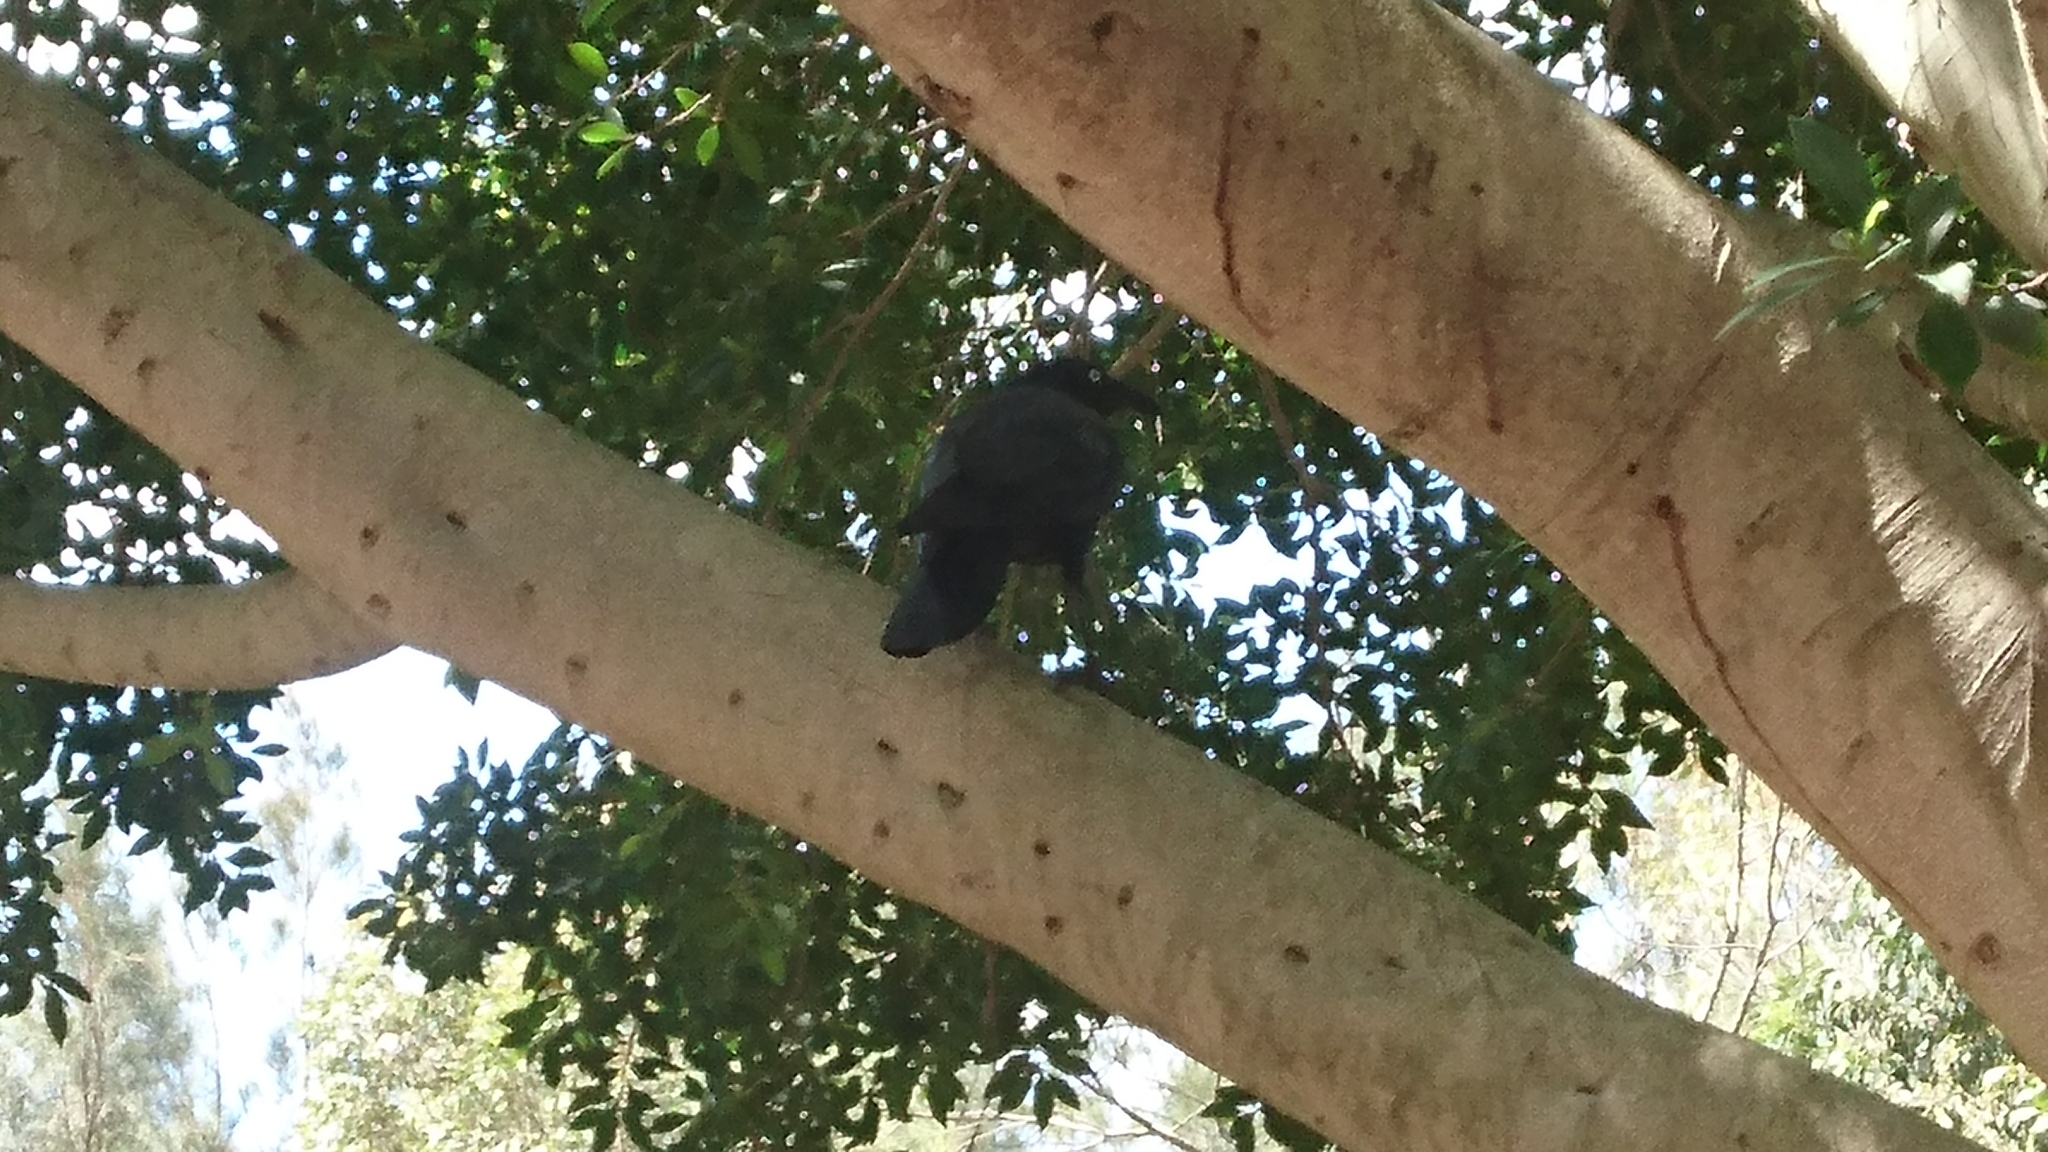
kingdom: Animalia
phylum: Chordata
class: Aves
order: Passeriformes
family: Corvidae
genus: Corvus
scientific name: Corvus coronoides
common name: Australian raven
